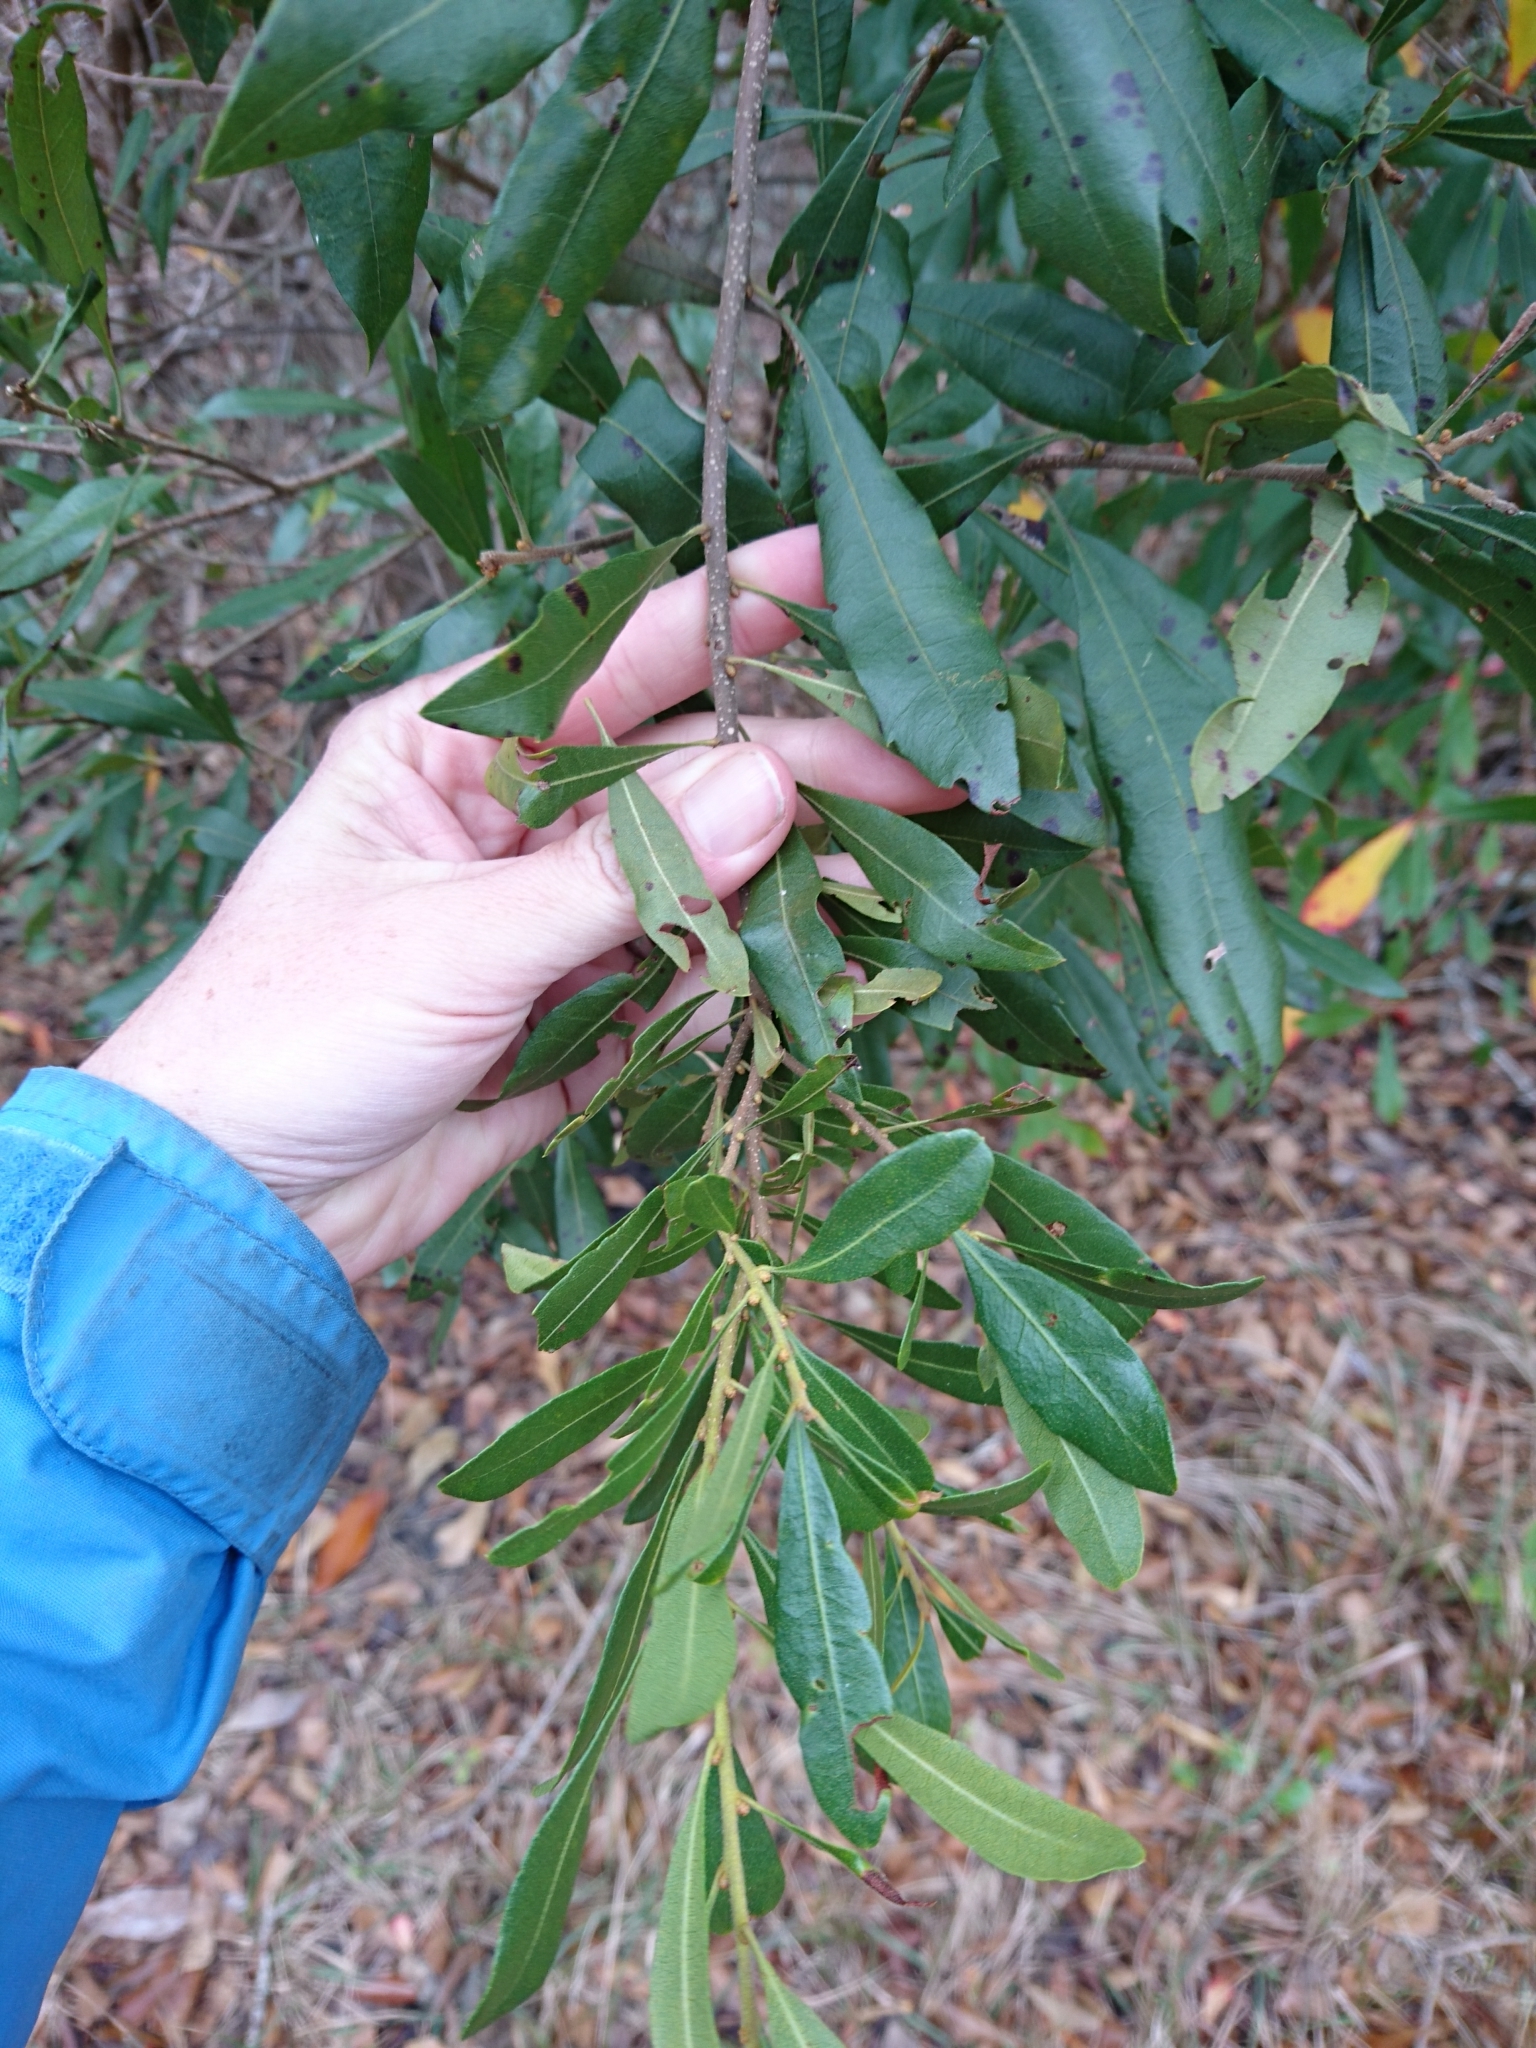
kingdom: Plantae
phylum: Tracheophyta
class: Magnoliopsida
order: Fagales
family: Myricaceae
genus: Morella
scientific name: Morella cerifera
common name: Wax myrtle
